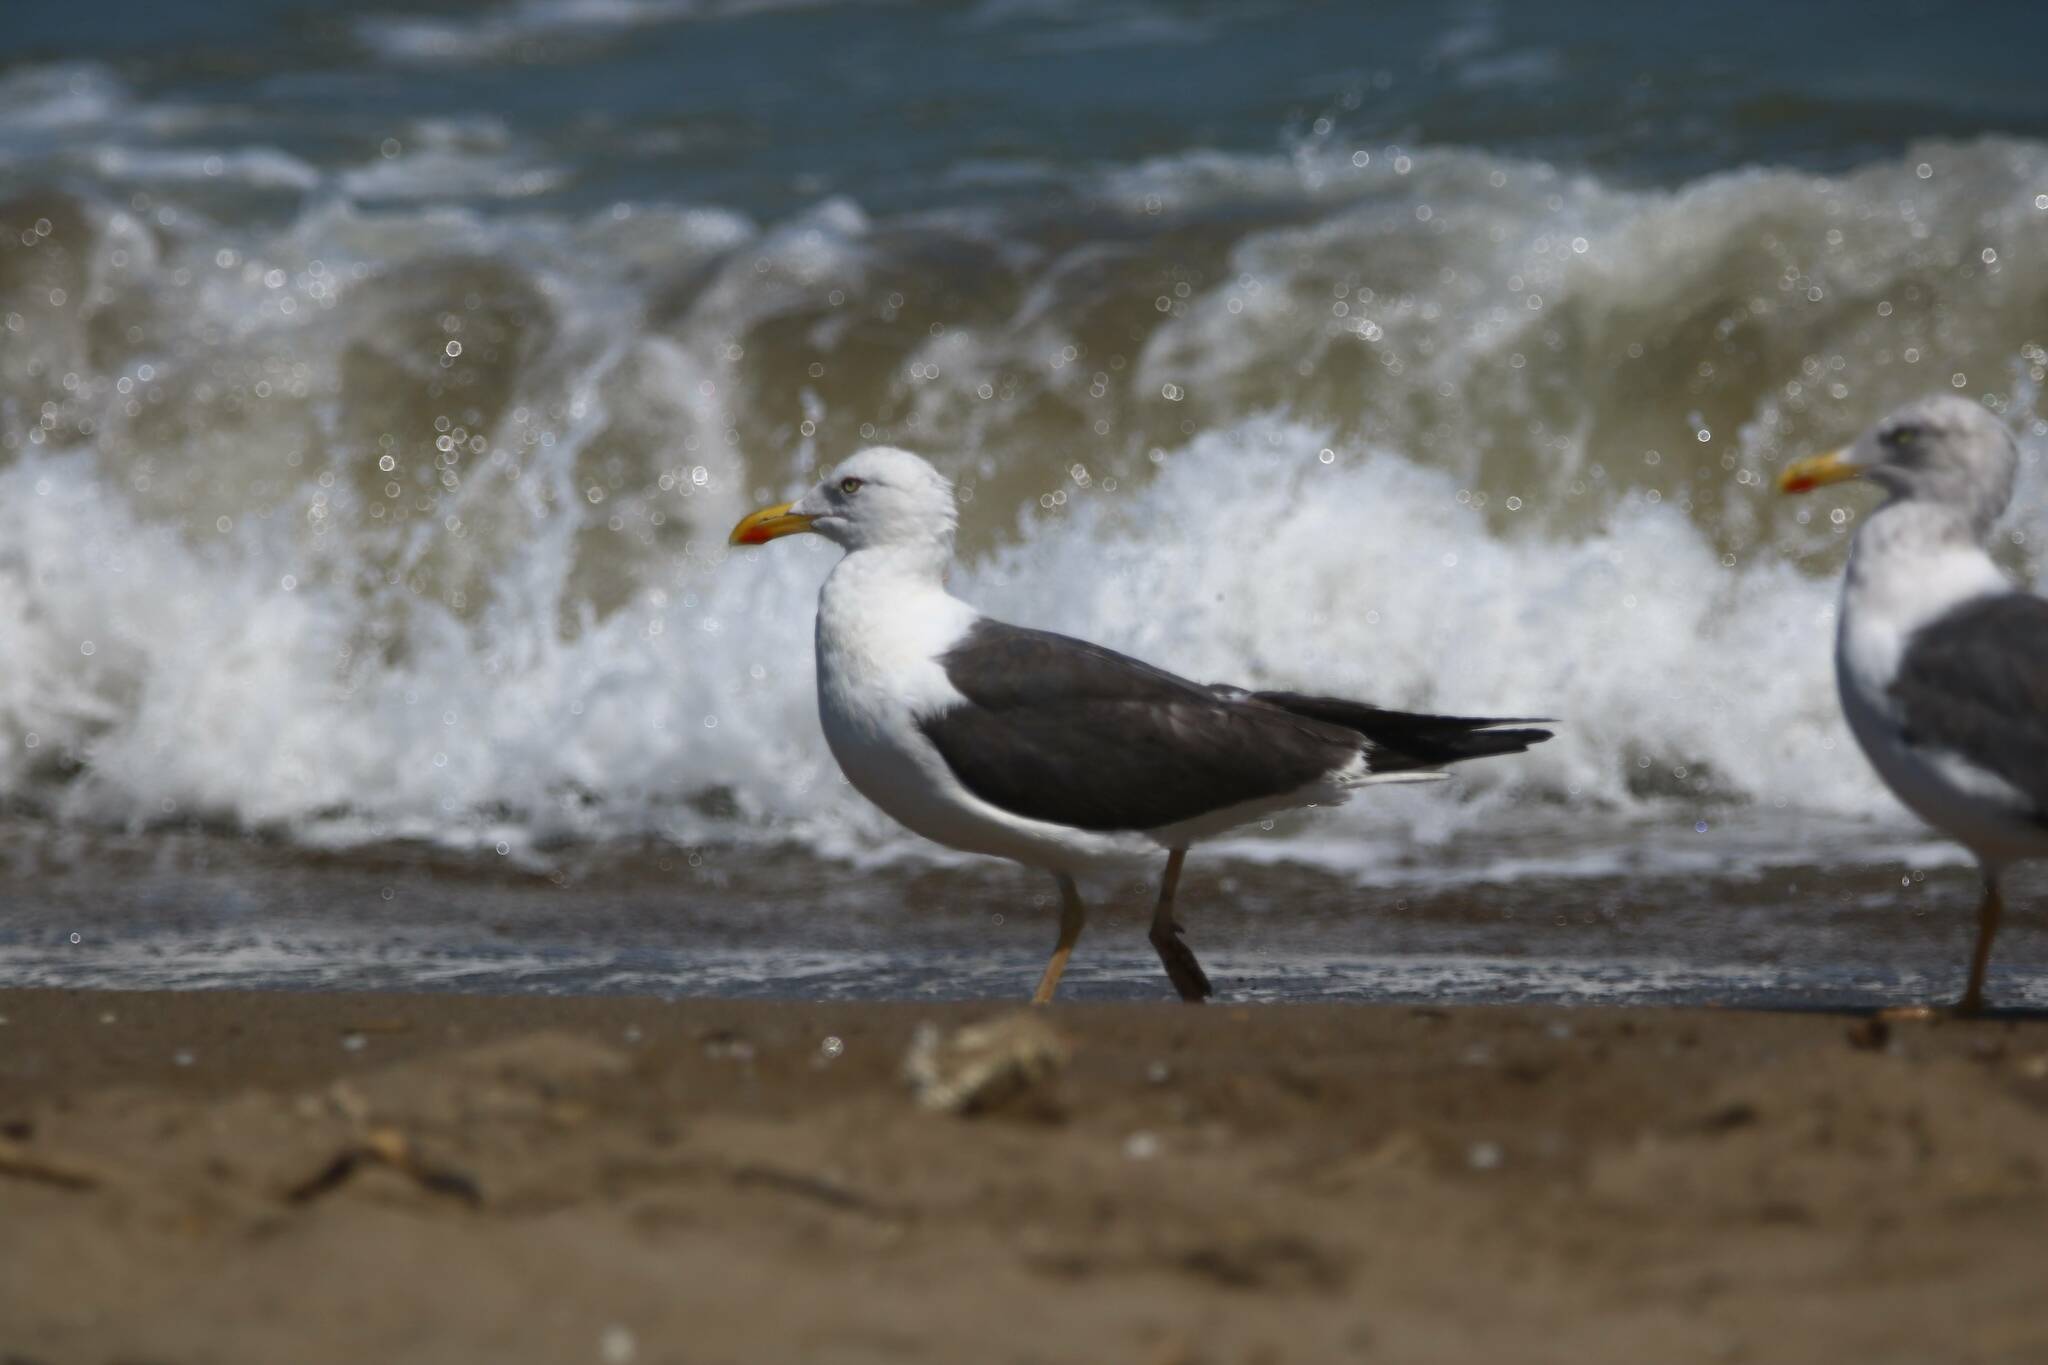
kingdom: Animalia
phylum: Chordata
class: Aves
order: Charadriiformes
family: Laridae
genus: Larus
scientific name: Larus fuscus
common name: Lesser black-backed gull
